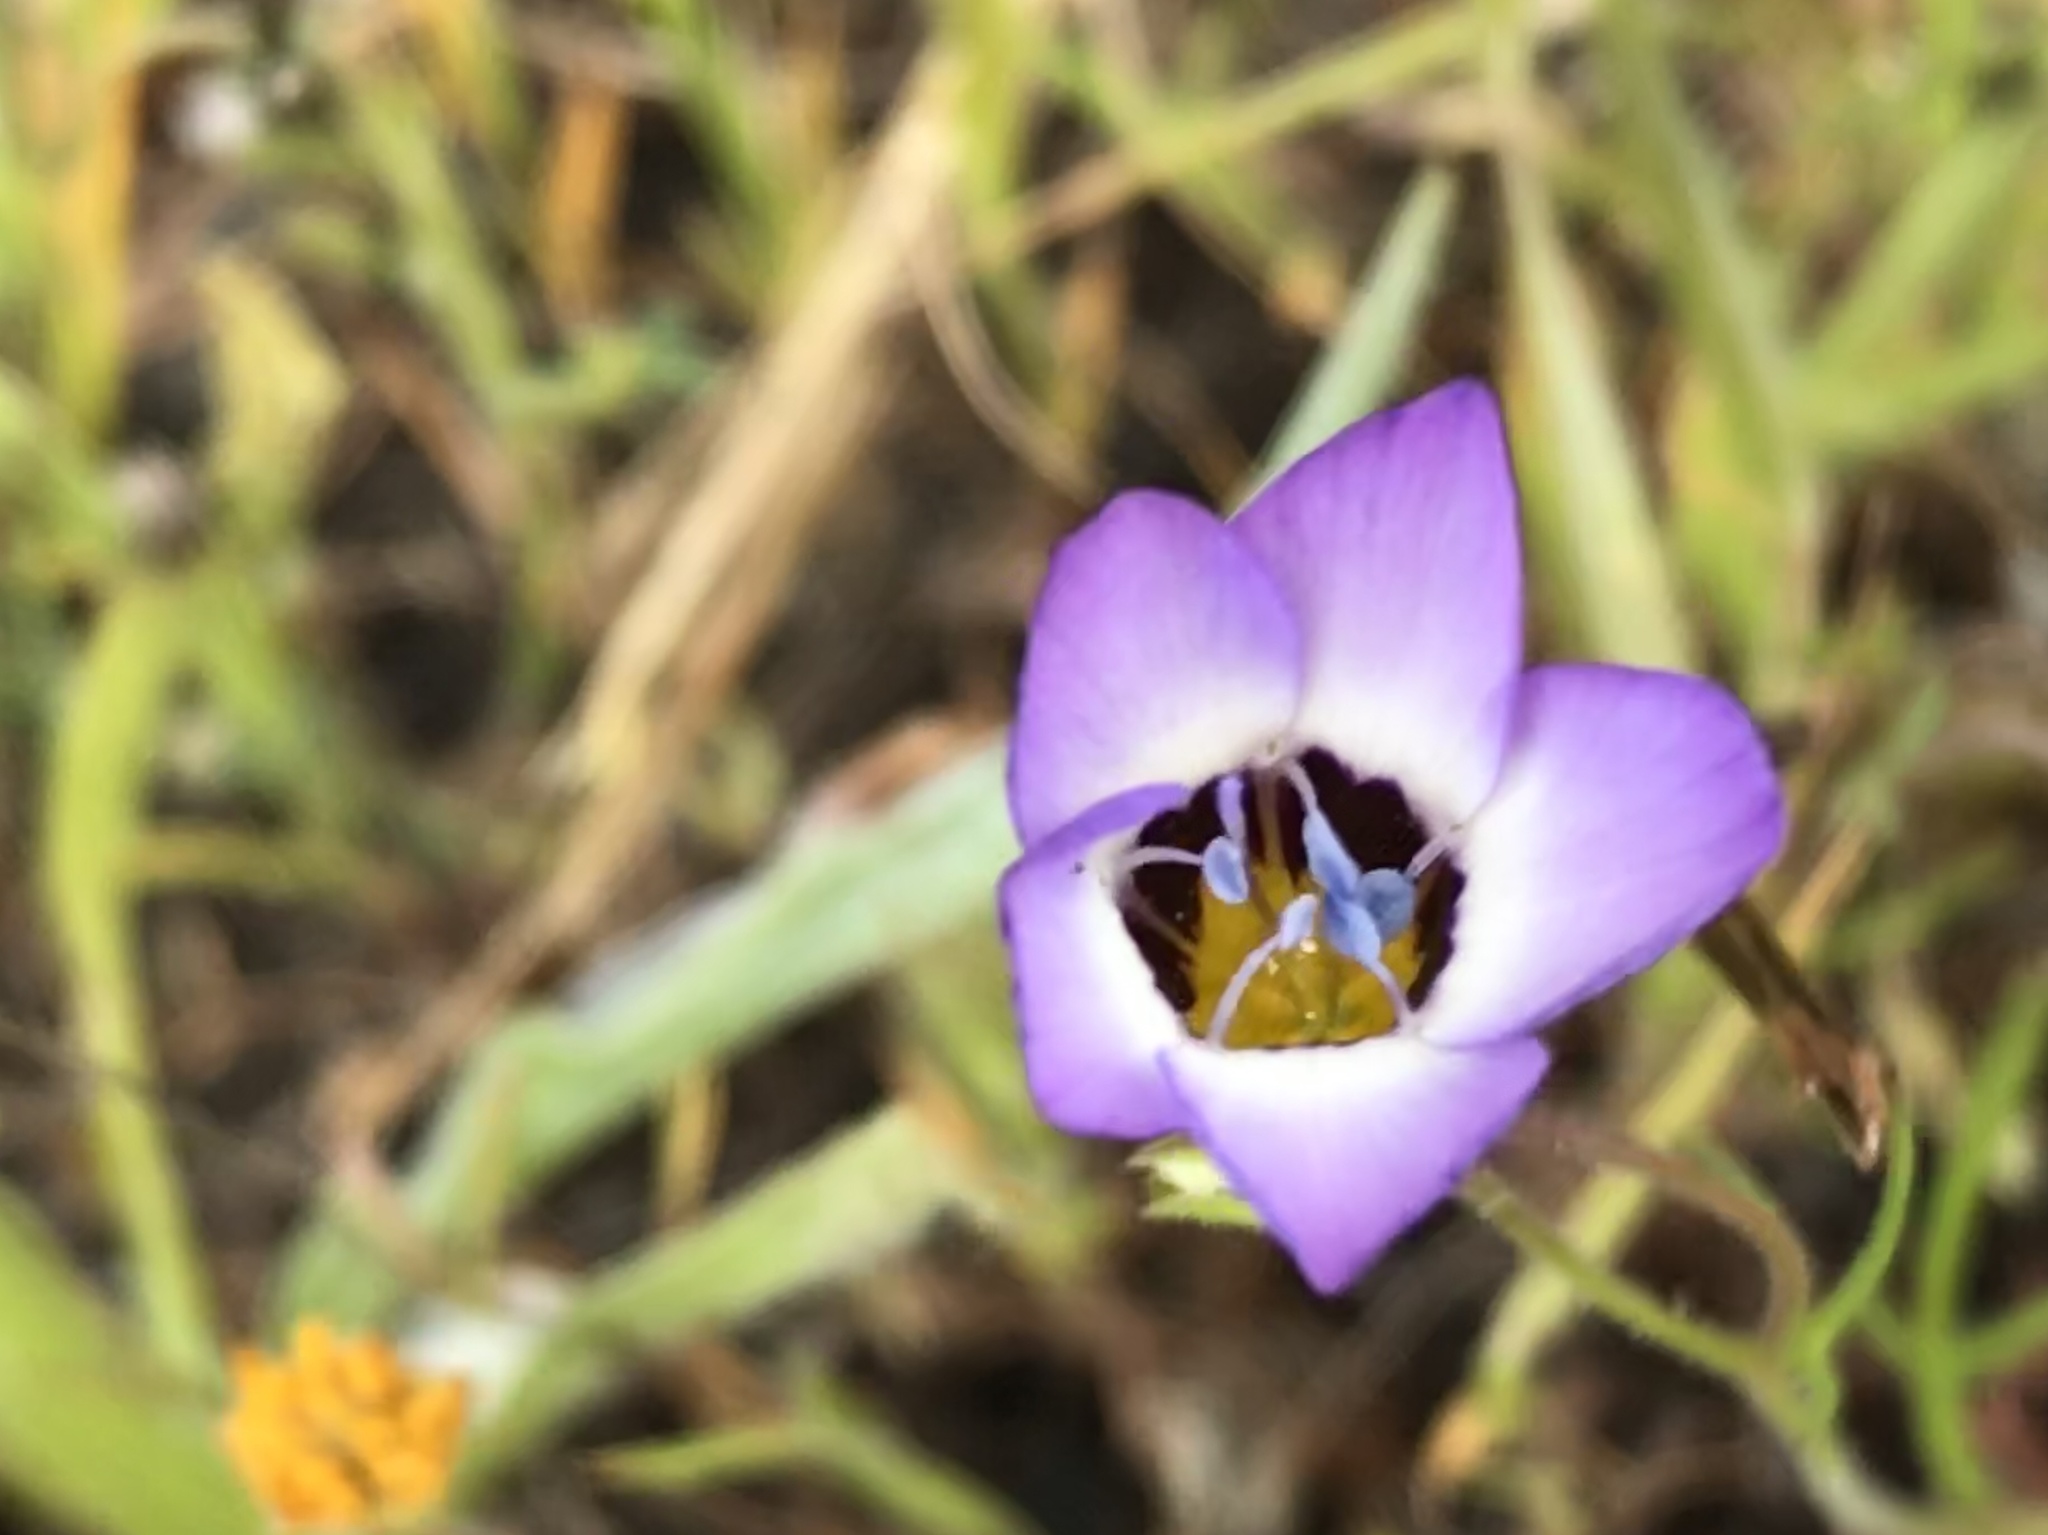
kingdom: Plantae
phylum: Tracheophyta
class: Magnoliopsida
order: Ericales
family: Polemoniaceae
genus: Gilia
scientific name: Gilia tricolor
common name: Bird's-eyes
